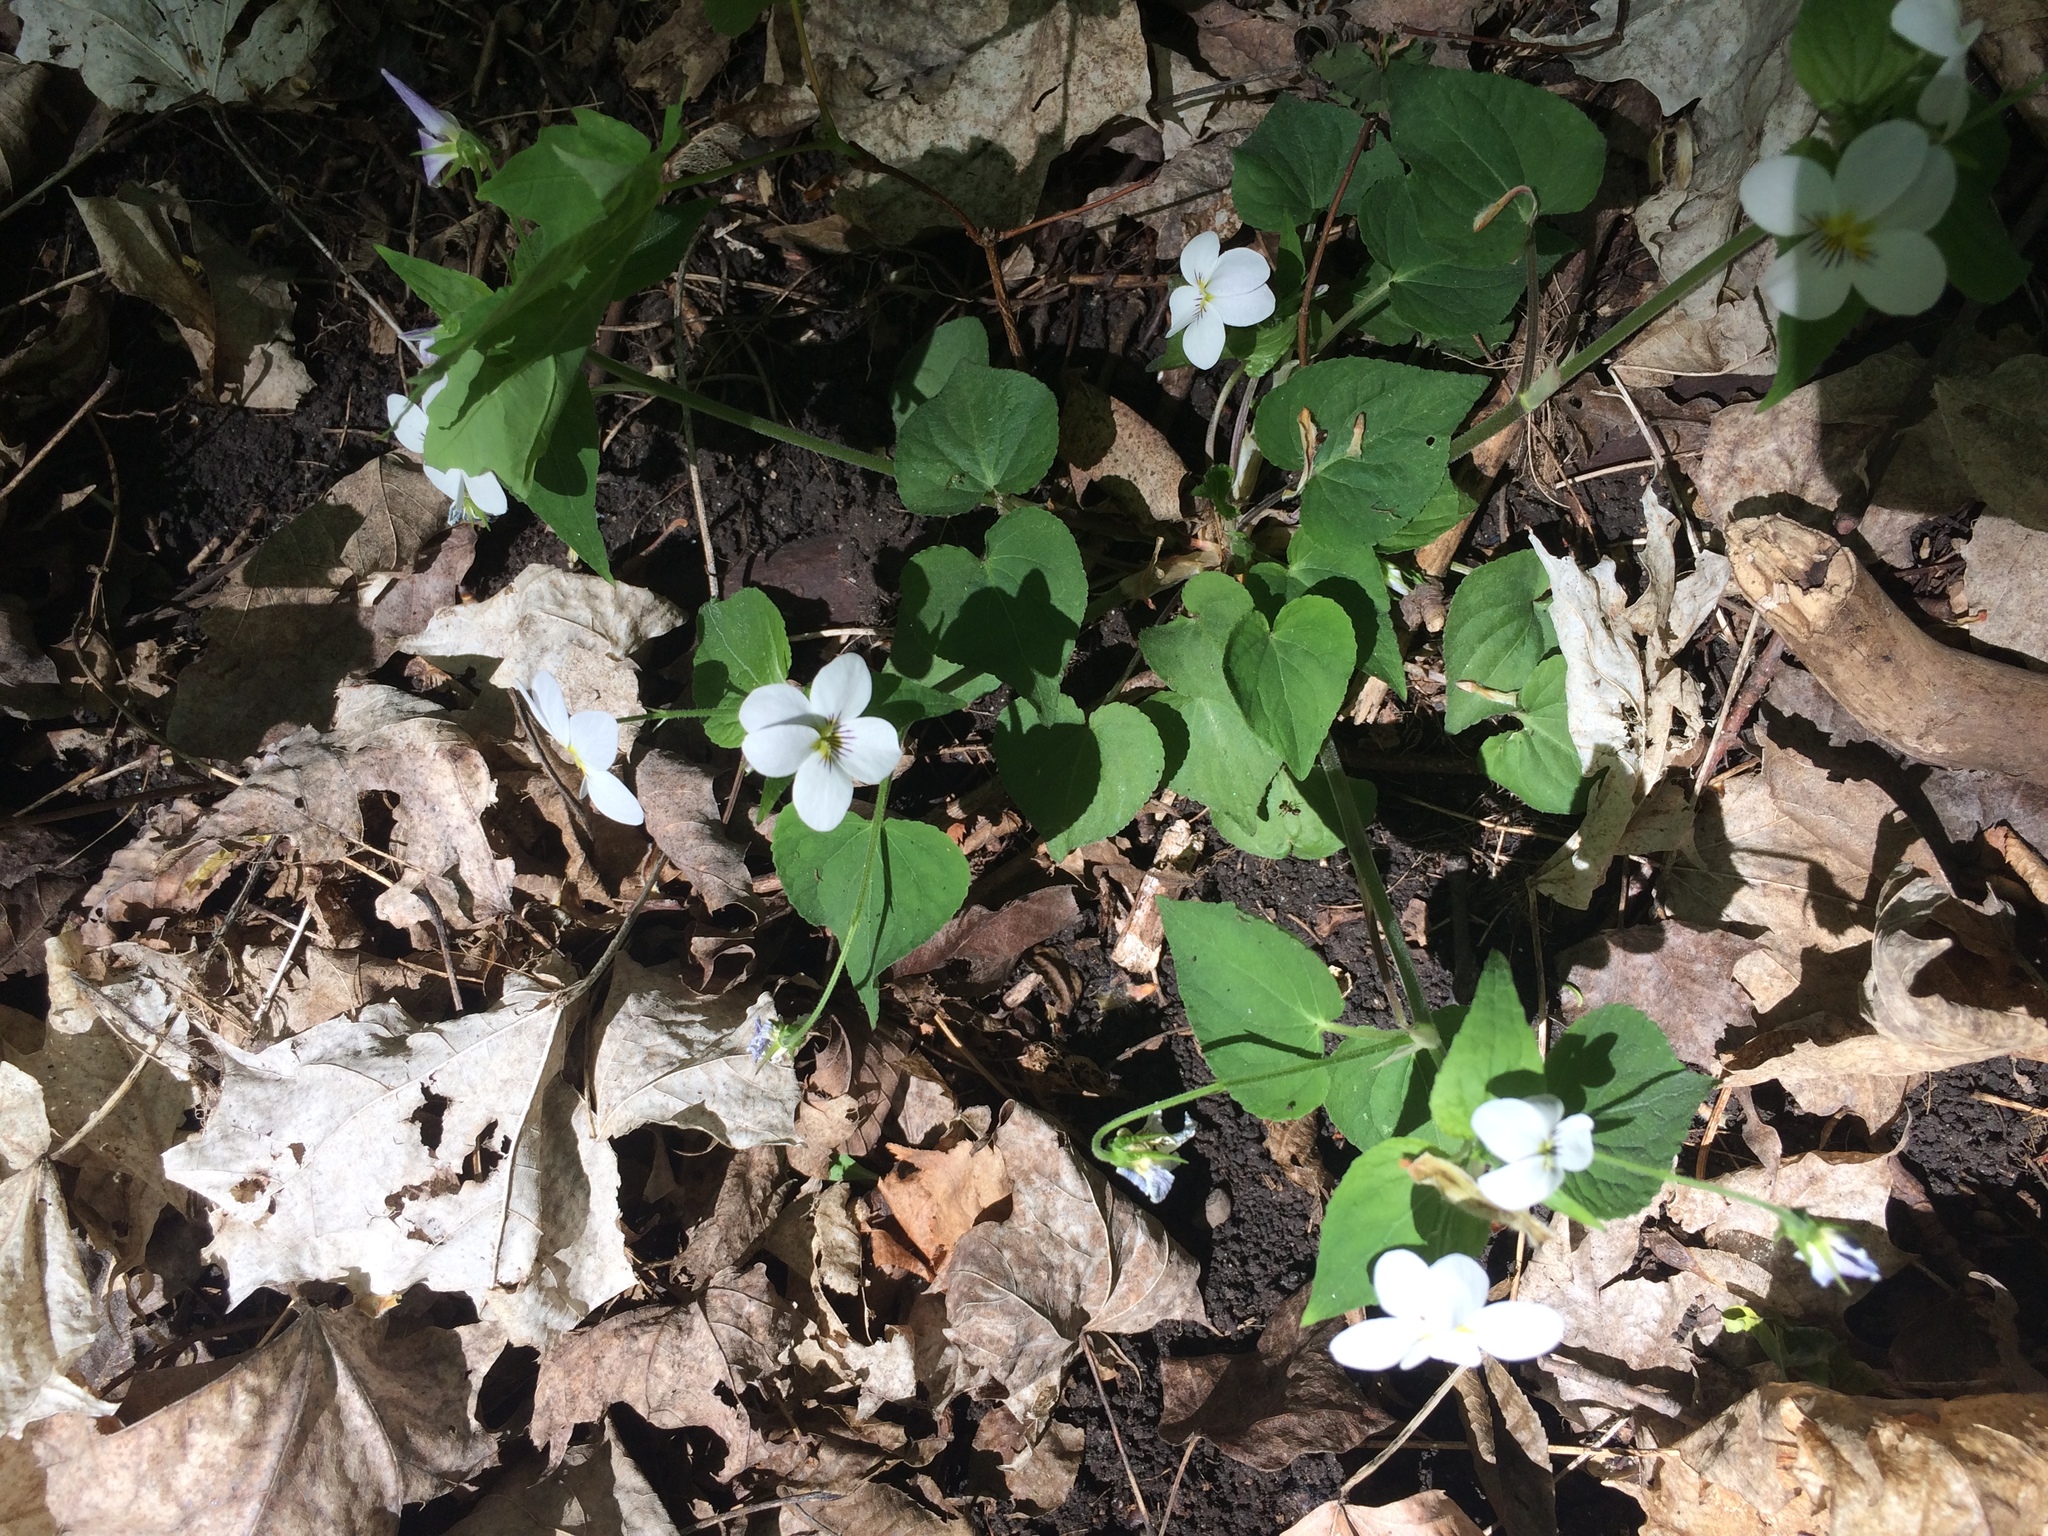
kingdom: Plantae
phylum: Tracheophyta
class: Magnoliopsida
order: Malpighiales
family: Violaceae
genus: Viola
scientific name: Viola canadensis
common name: Canada violet
